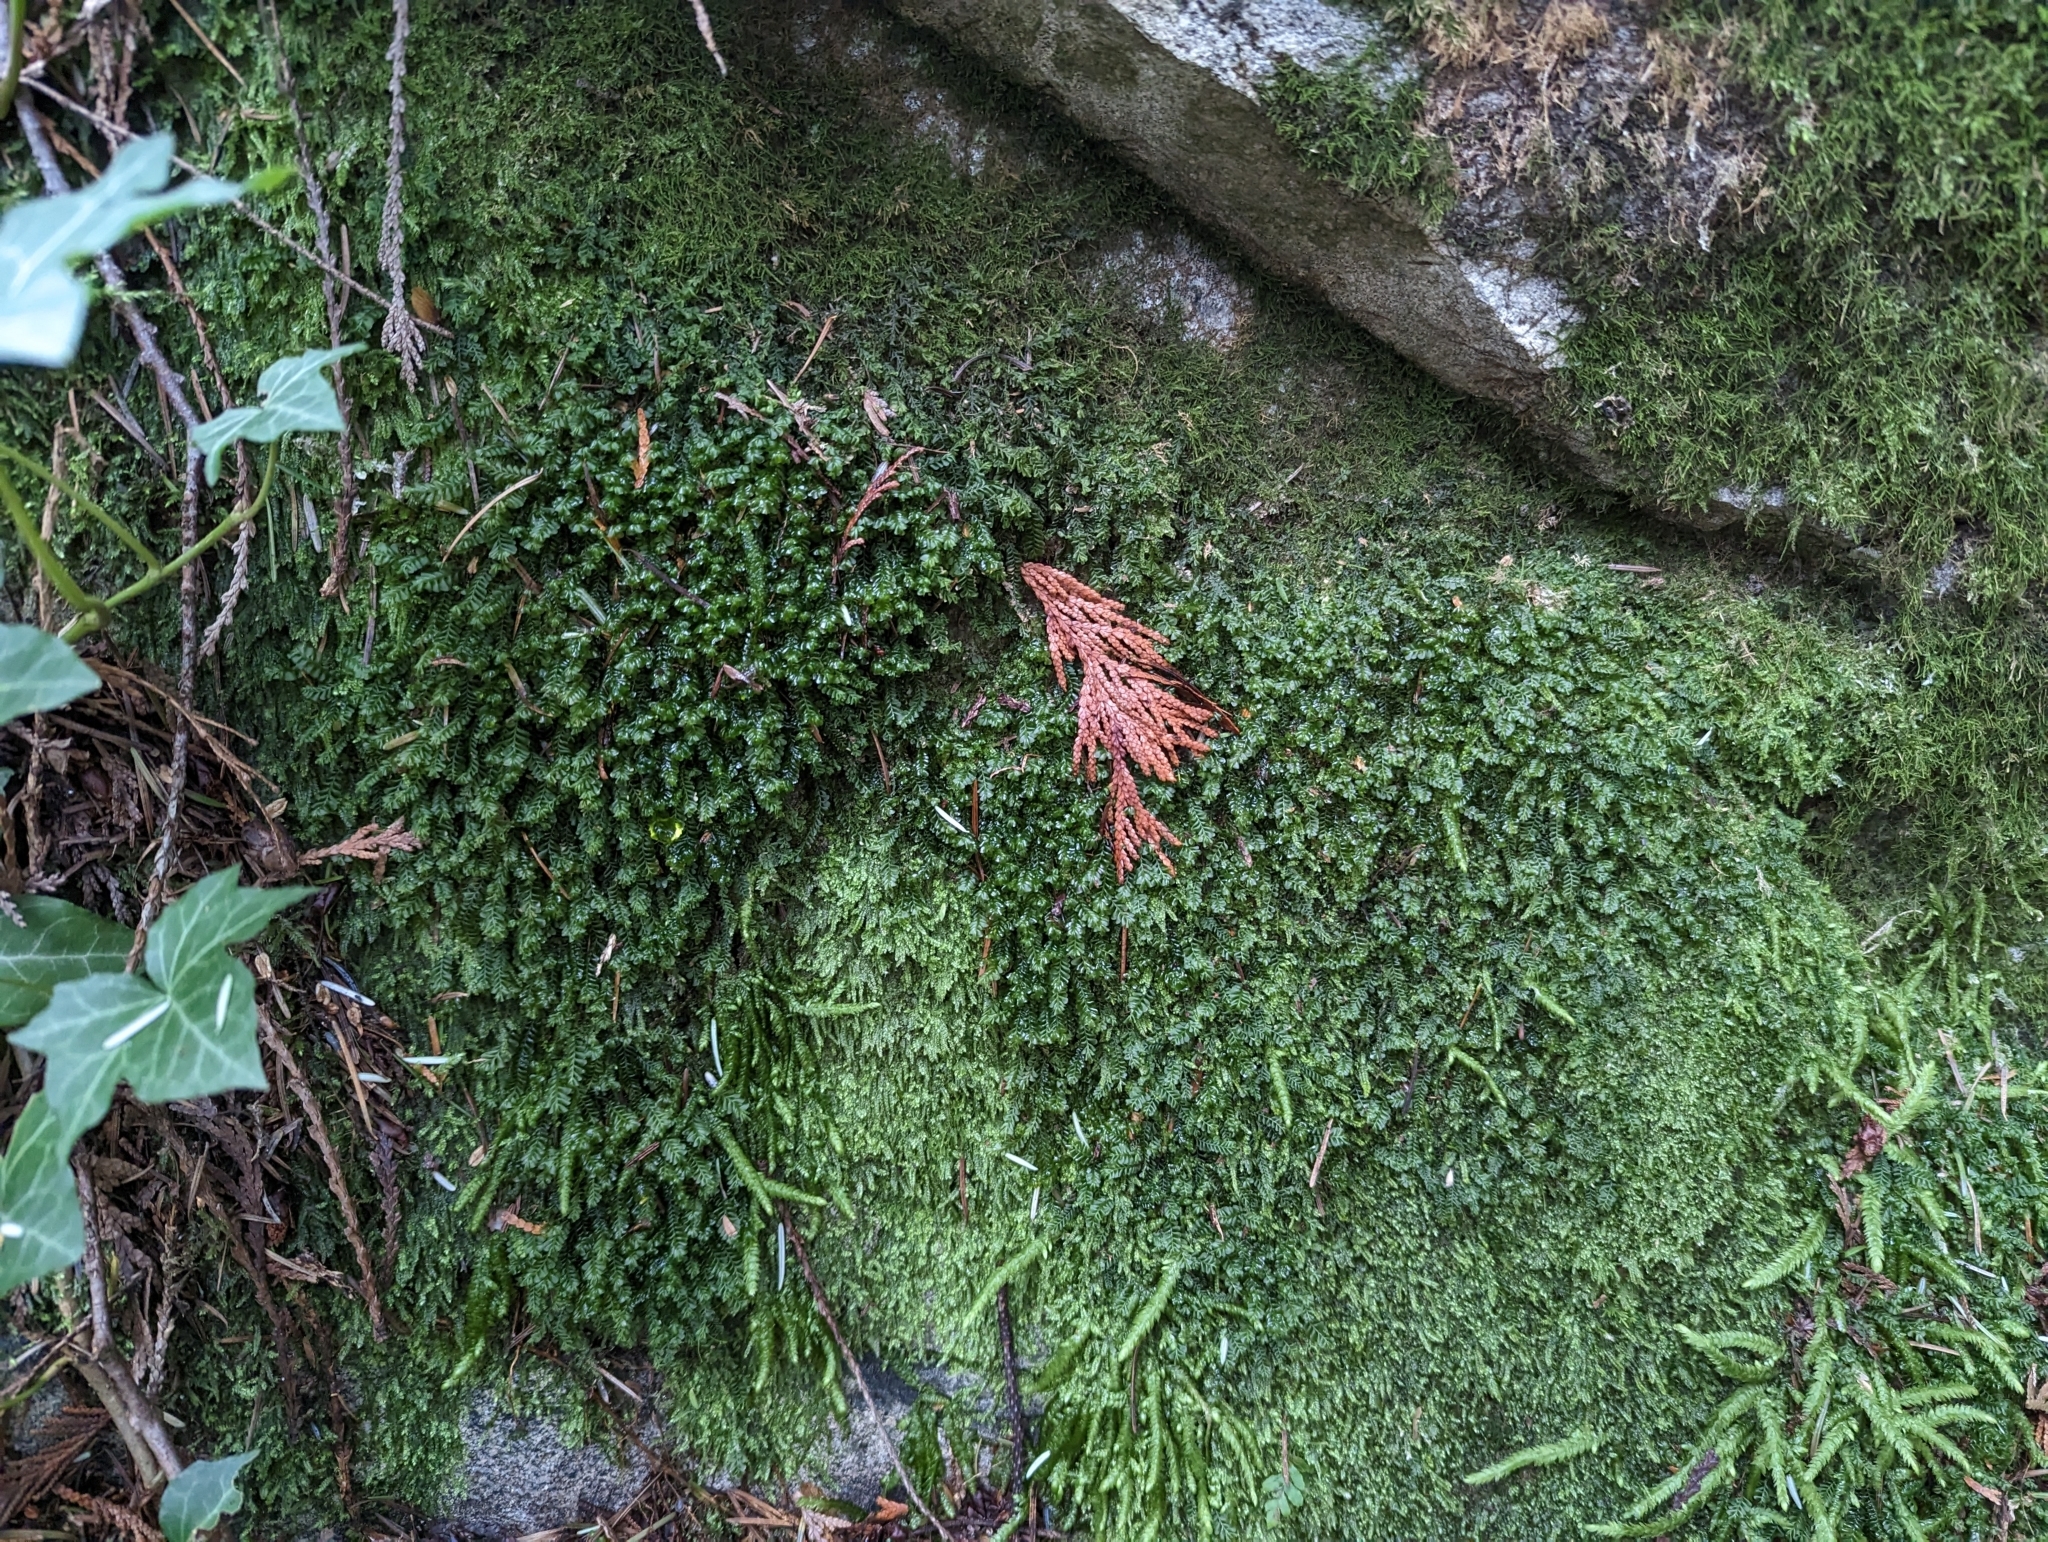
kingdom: Plantae
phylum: Marchantiophyta
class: Jungermanniopsida
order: Jungermanniales
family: Plagiochilaceae
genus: Plagiochila
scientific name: Plagiochila porelloides
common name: Lesser featherwort
